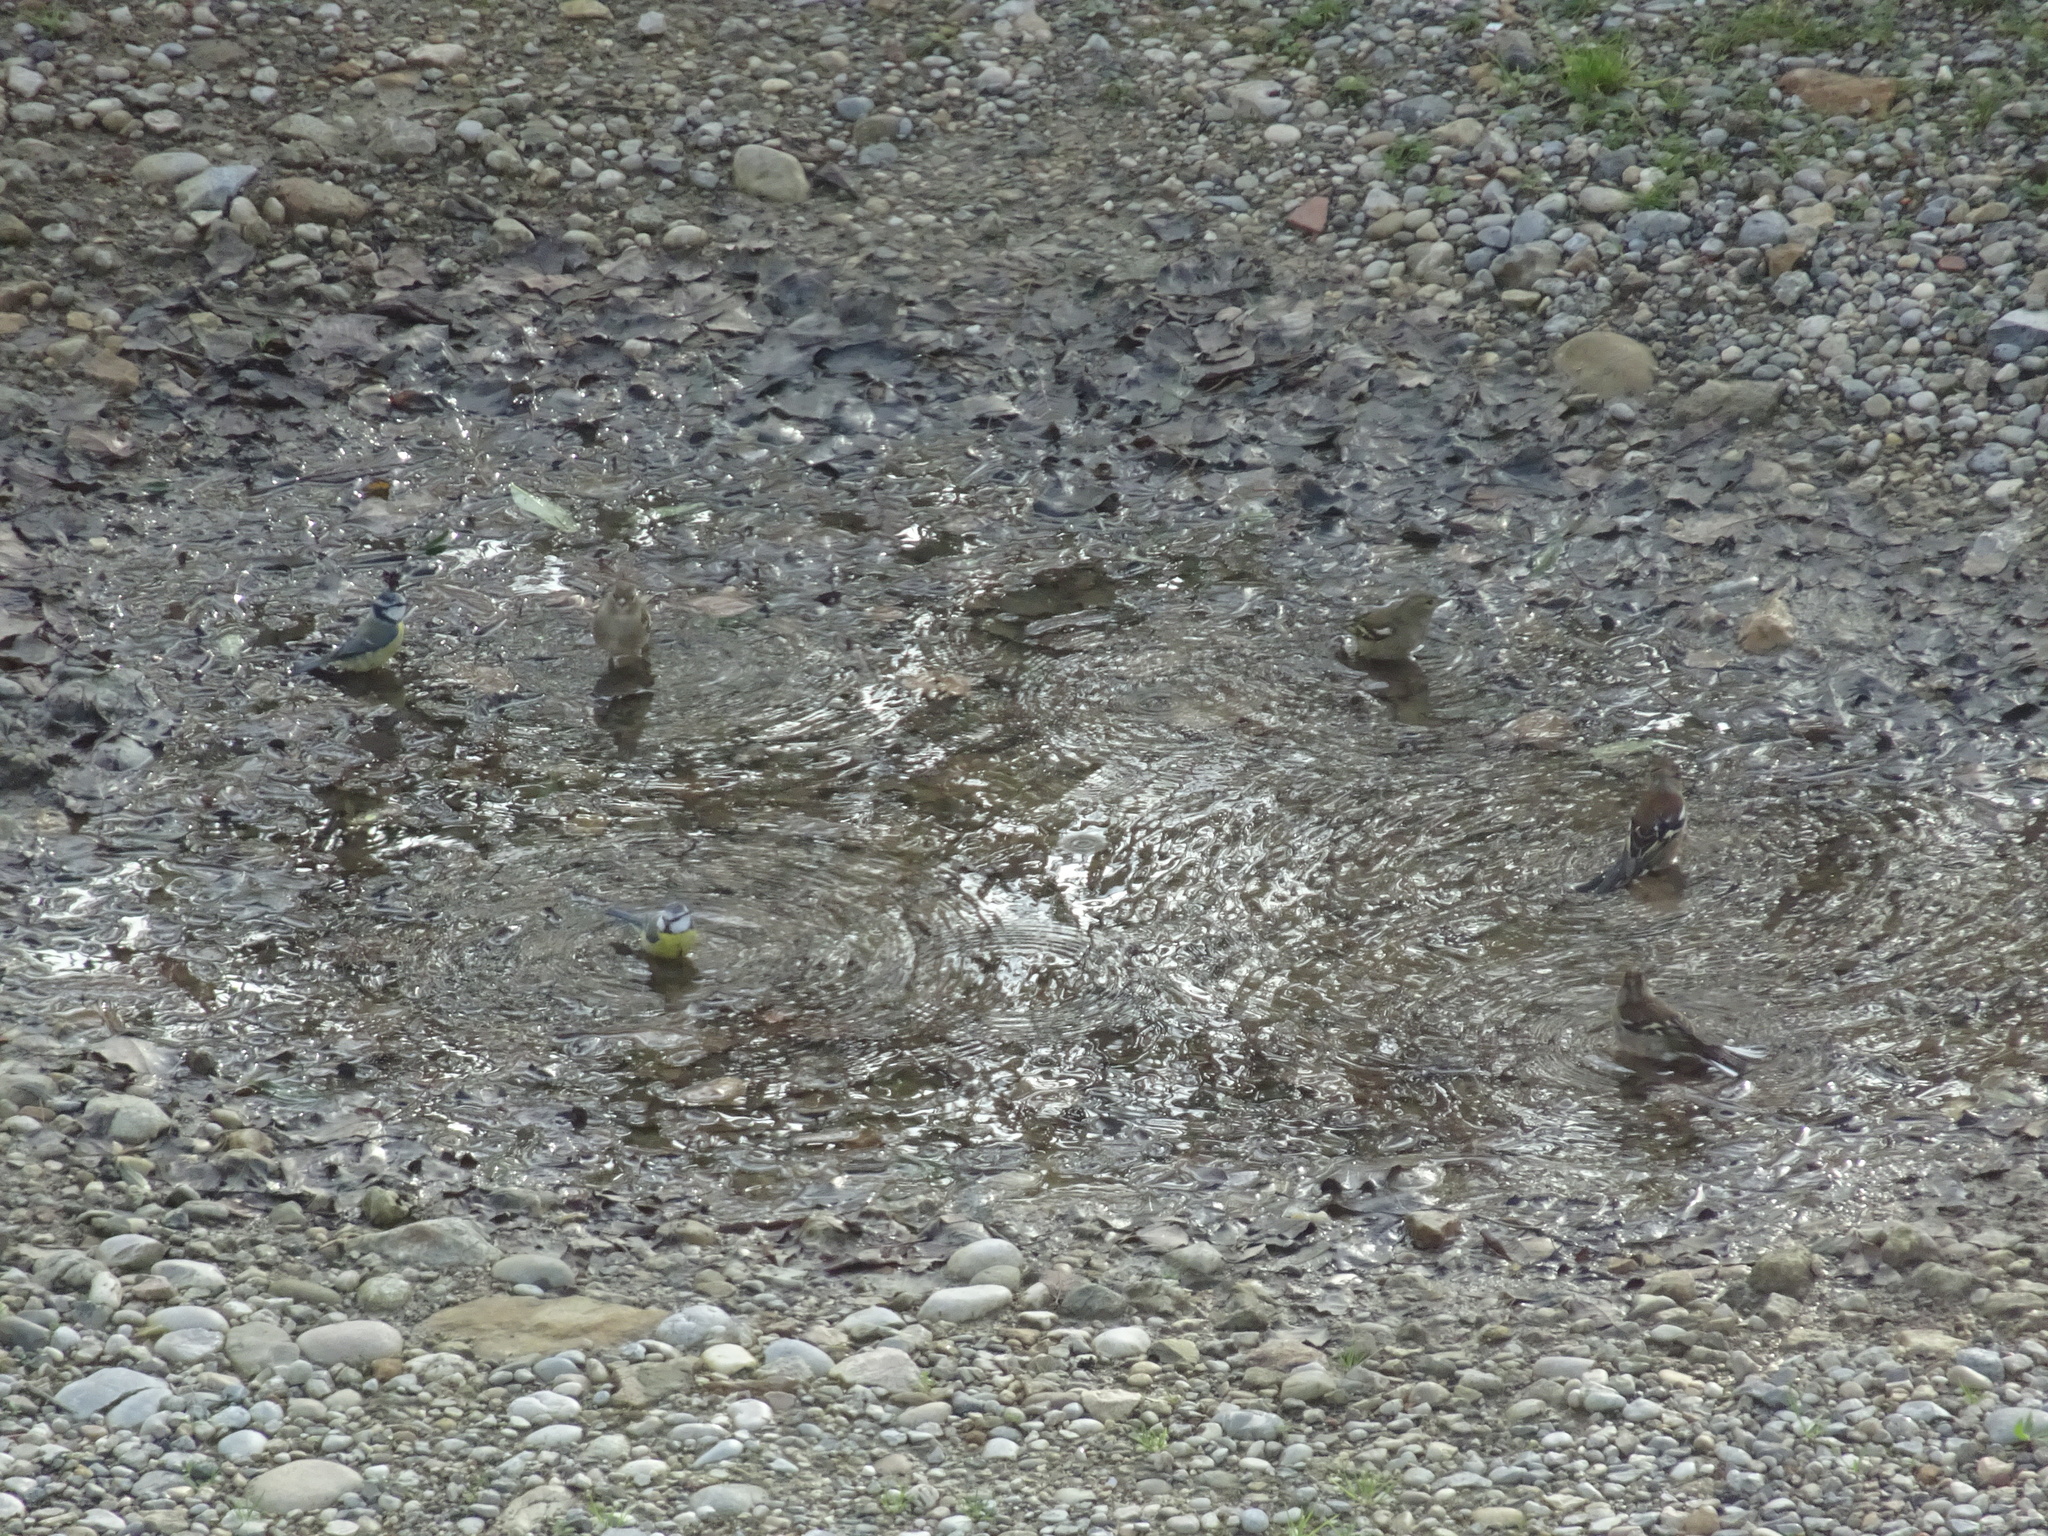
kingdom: Animalia
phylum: Chordata
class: Aves
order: Passeriformes
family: Fringillidae
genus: Fringilla
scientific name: Fringilla coelebs
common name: Common chaffinch
